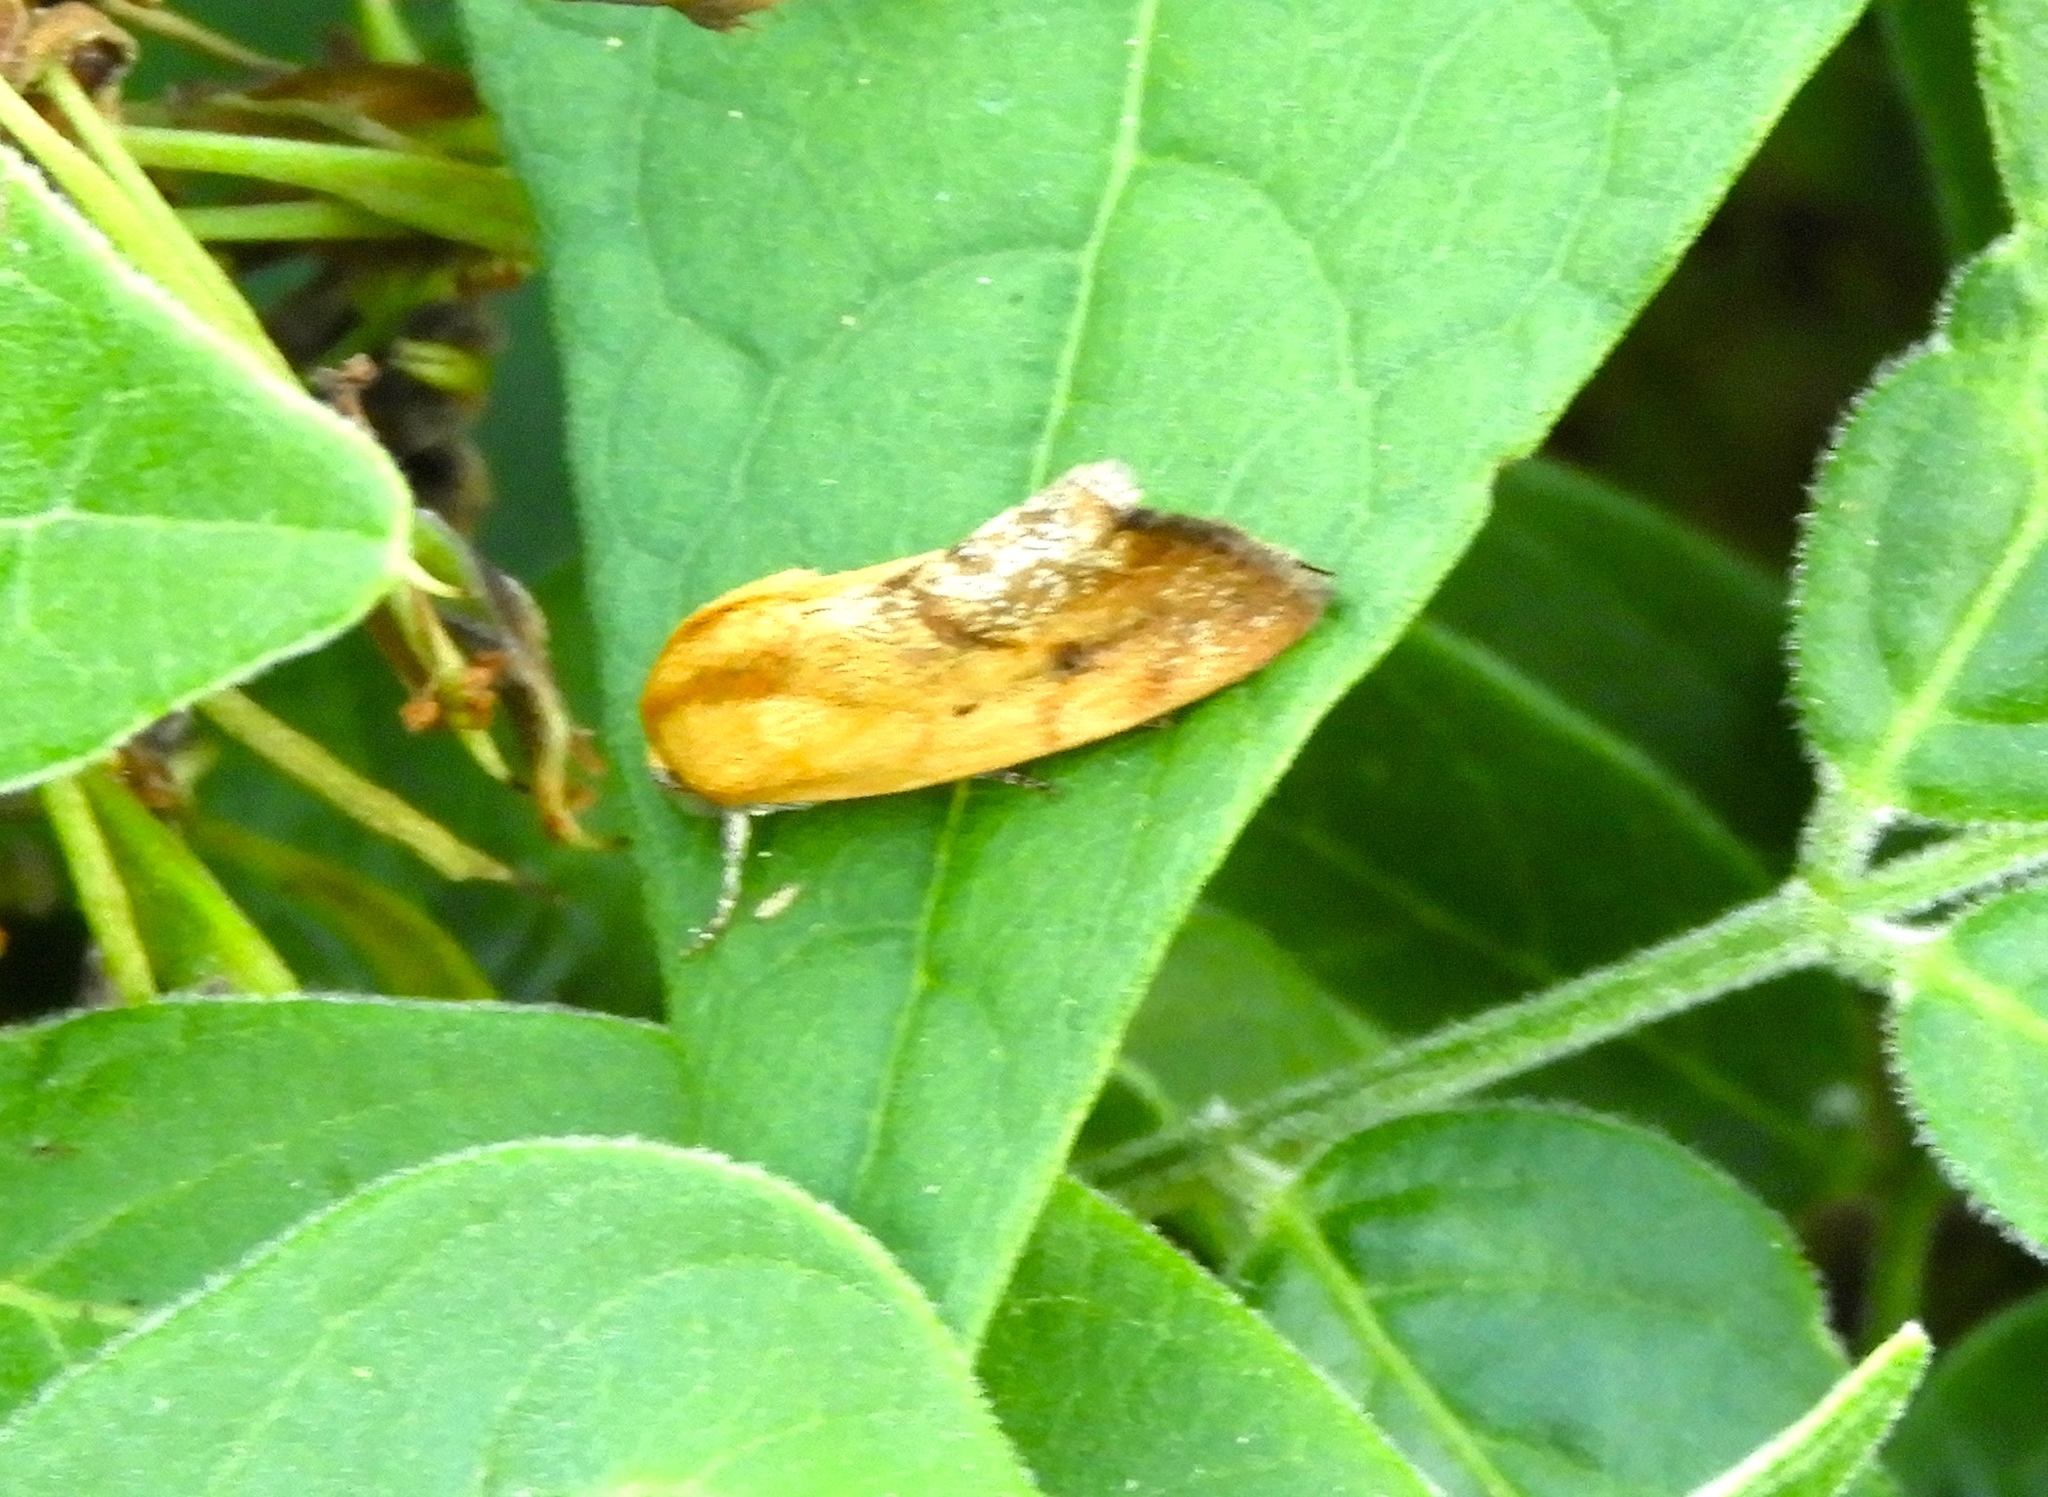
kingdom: Animalia
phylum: Arthropoda
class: Insecta
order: Lepidoptera
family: Noctuidae
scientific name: Noctuidae
